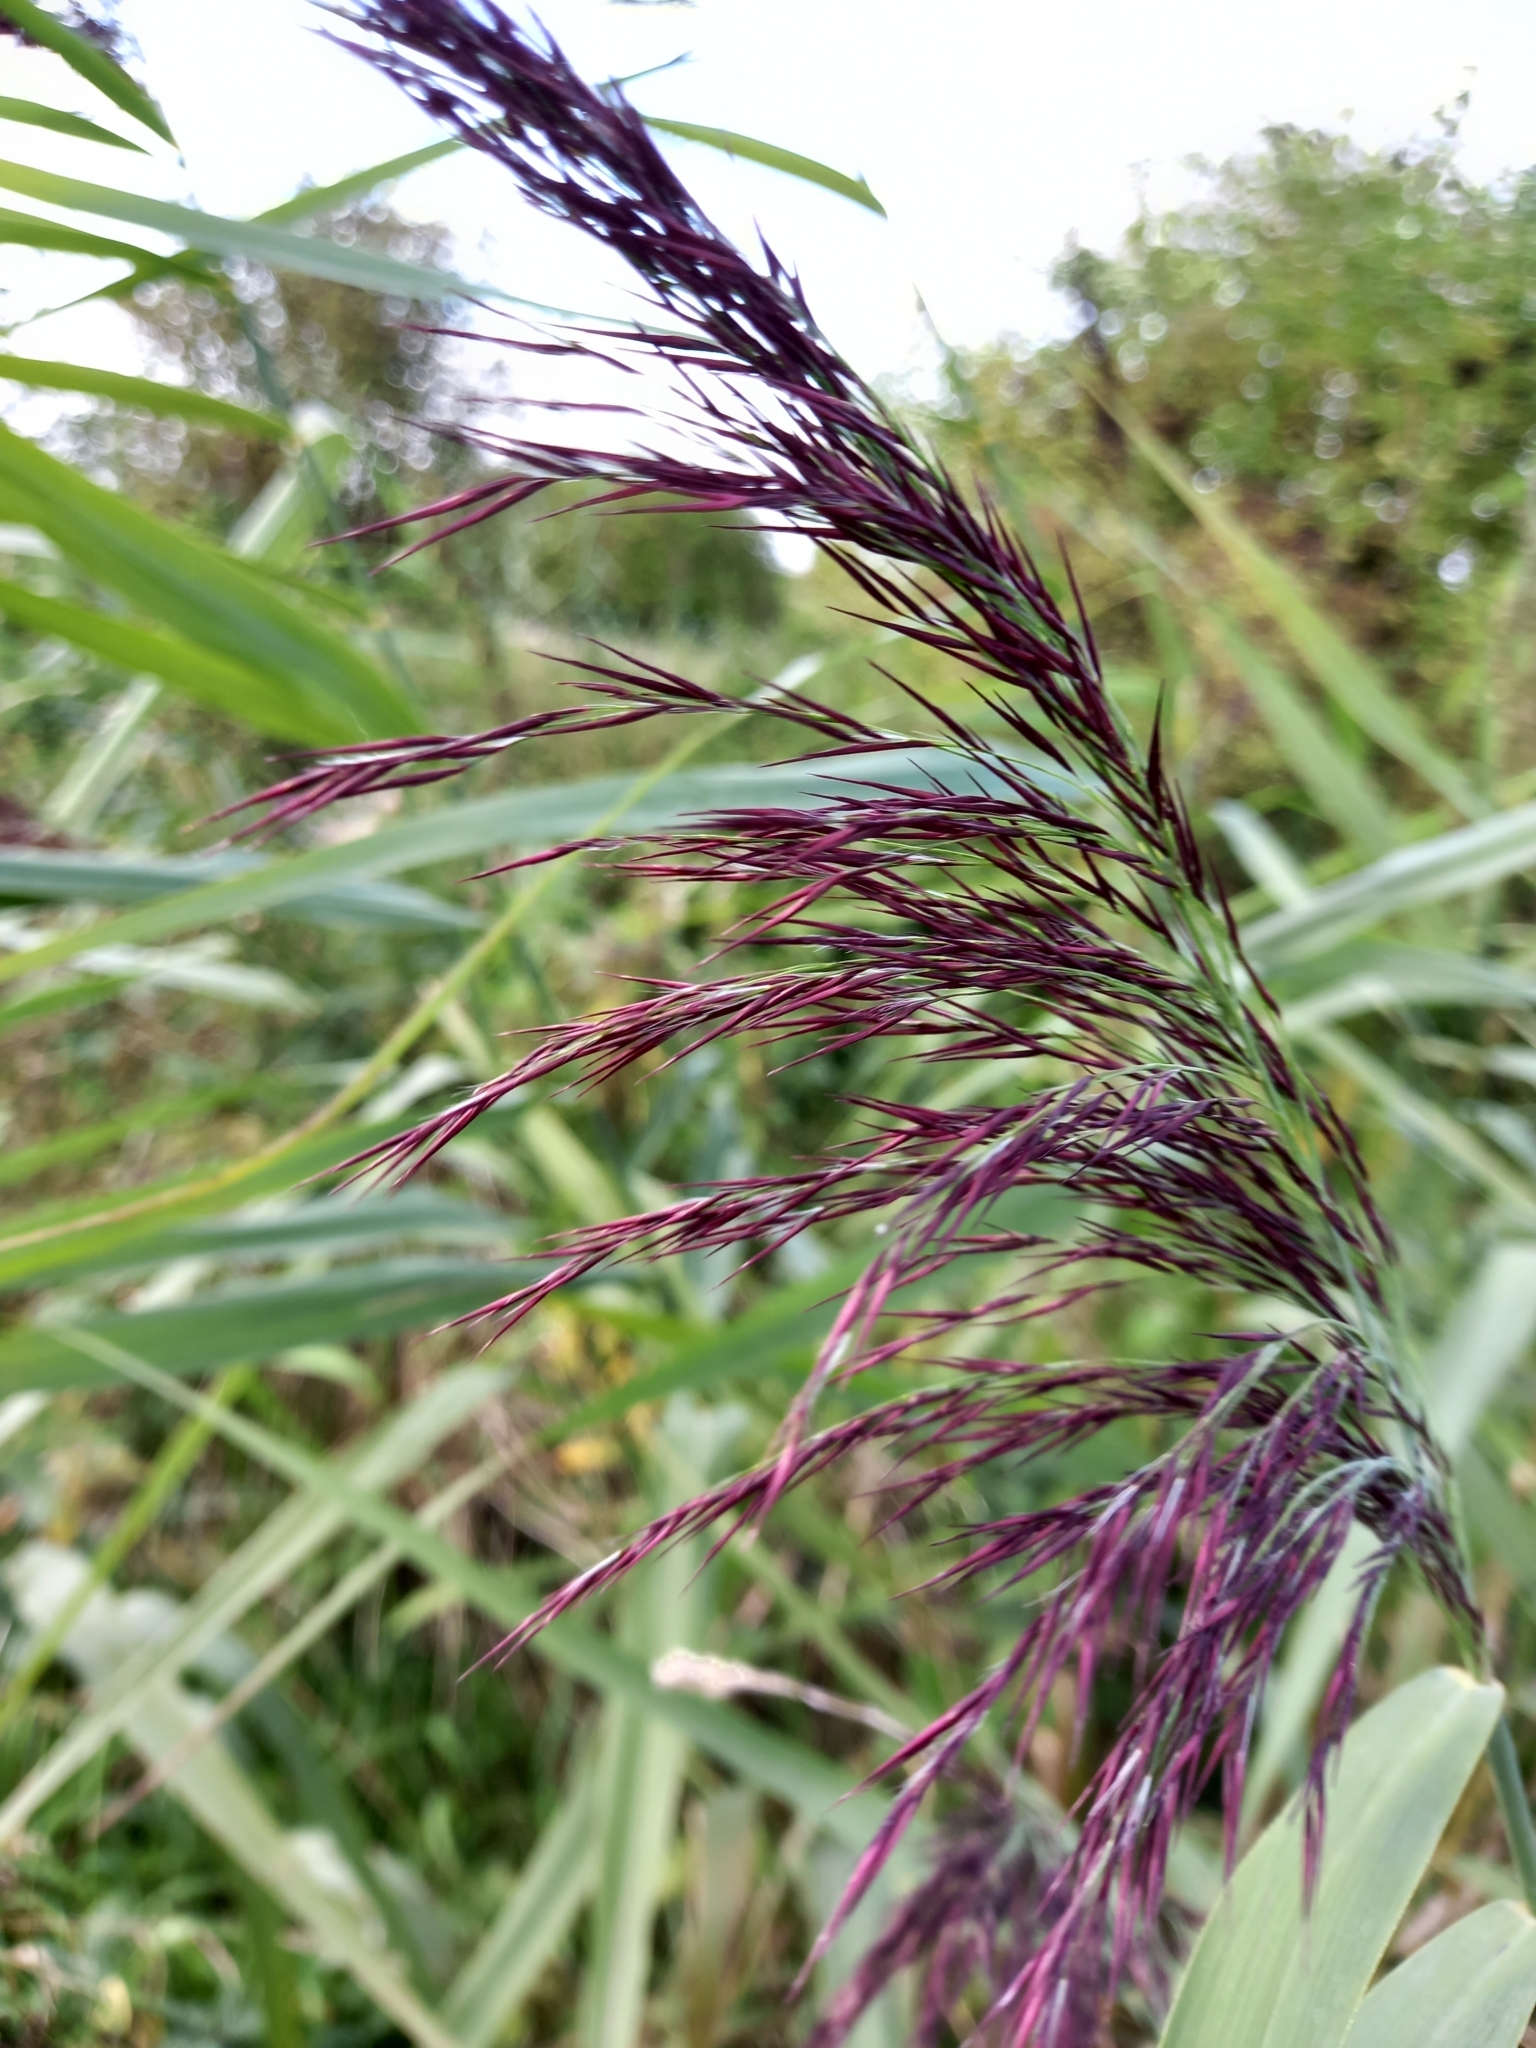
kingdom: Plantae
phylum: Tracheophyta
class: Liliopsida
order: Poales
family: Poaceae
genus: Phragmites
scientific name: Phragmites australis
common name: Common reed
